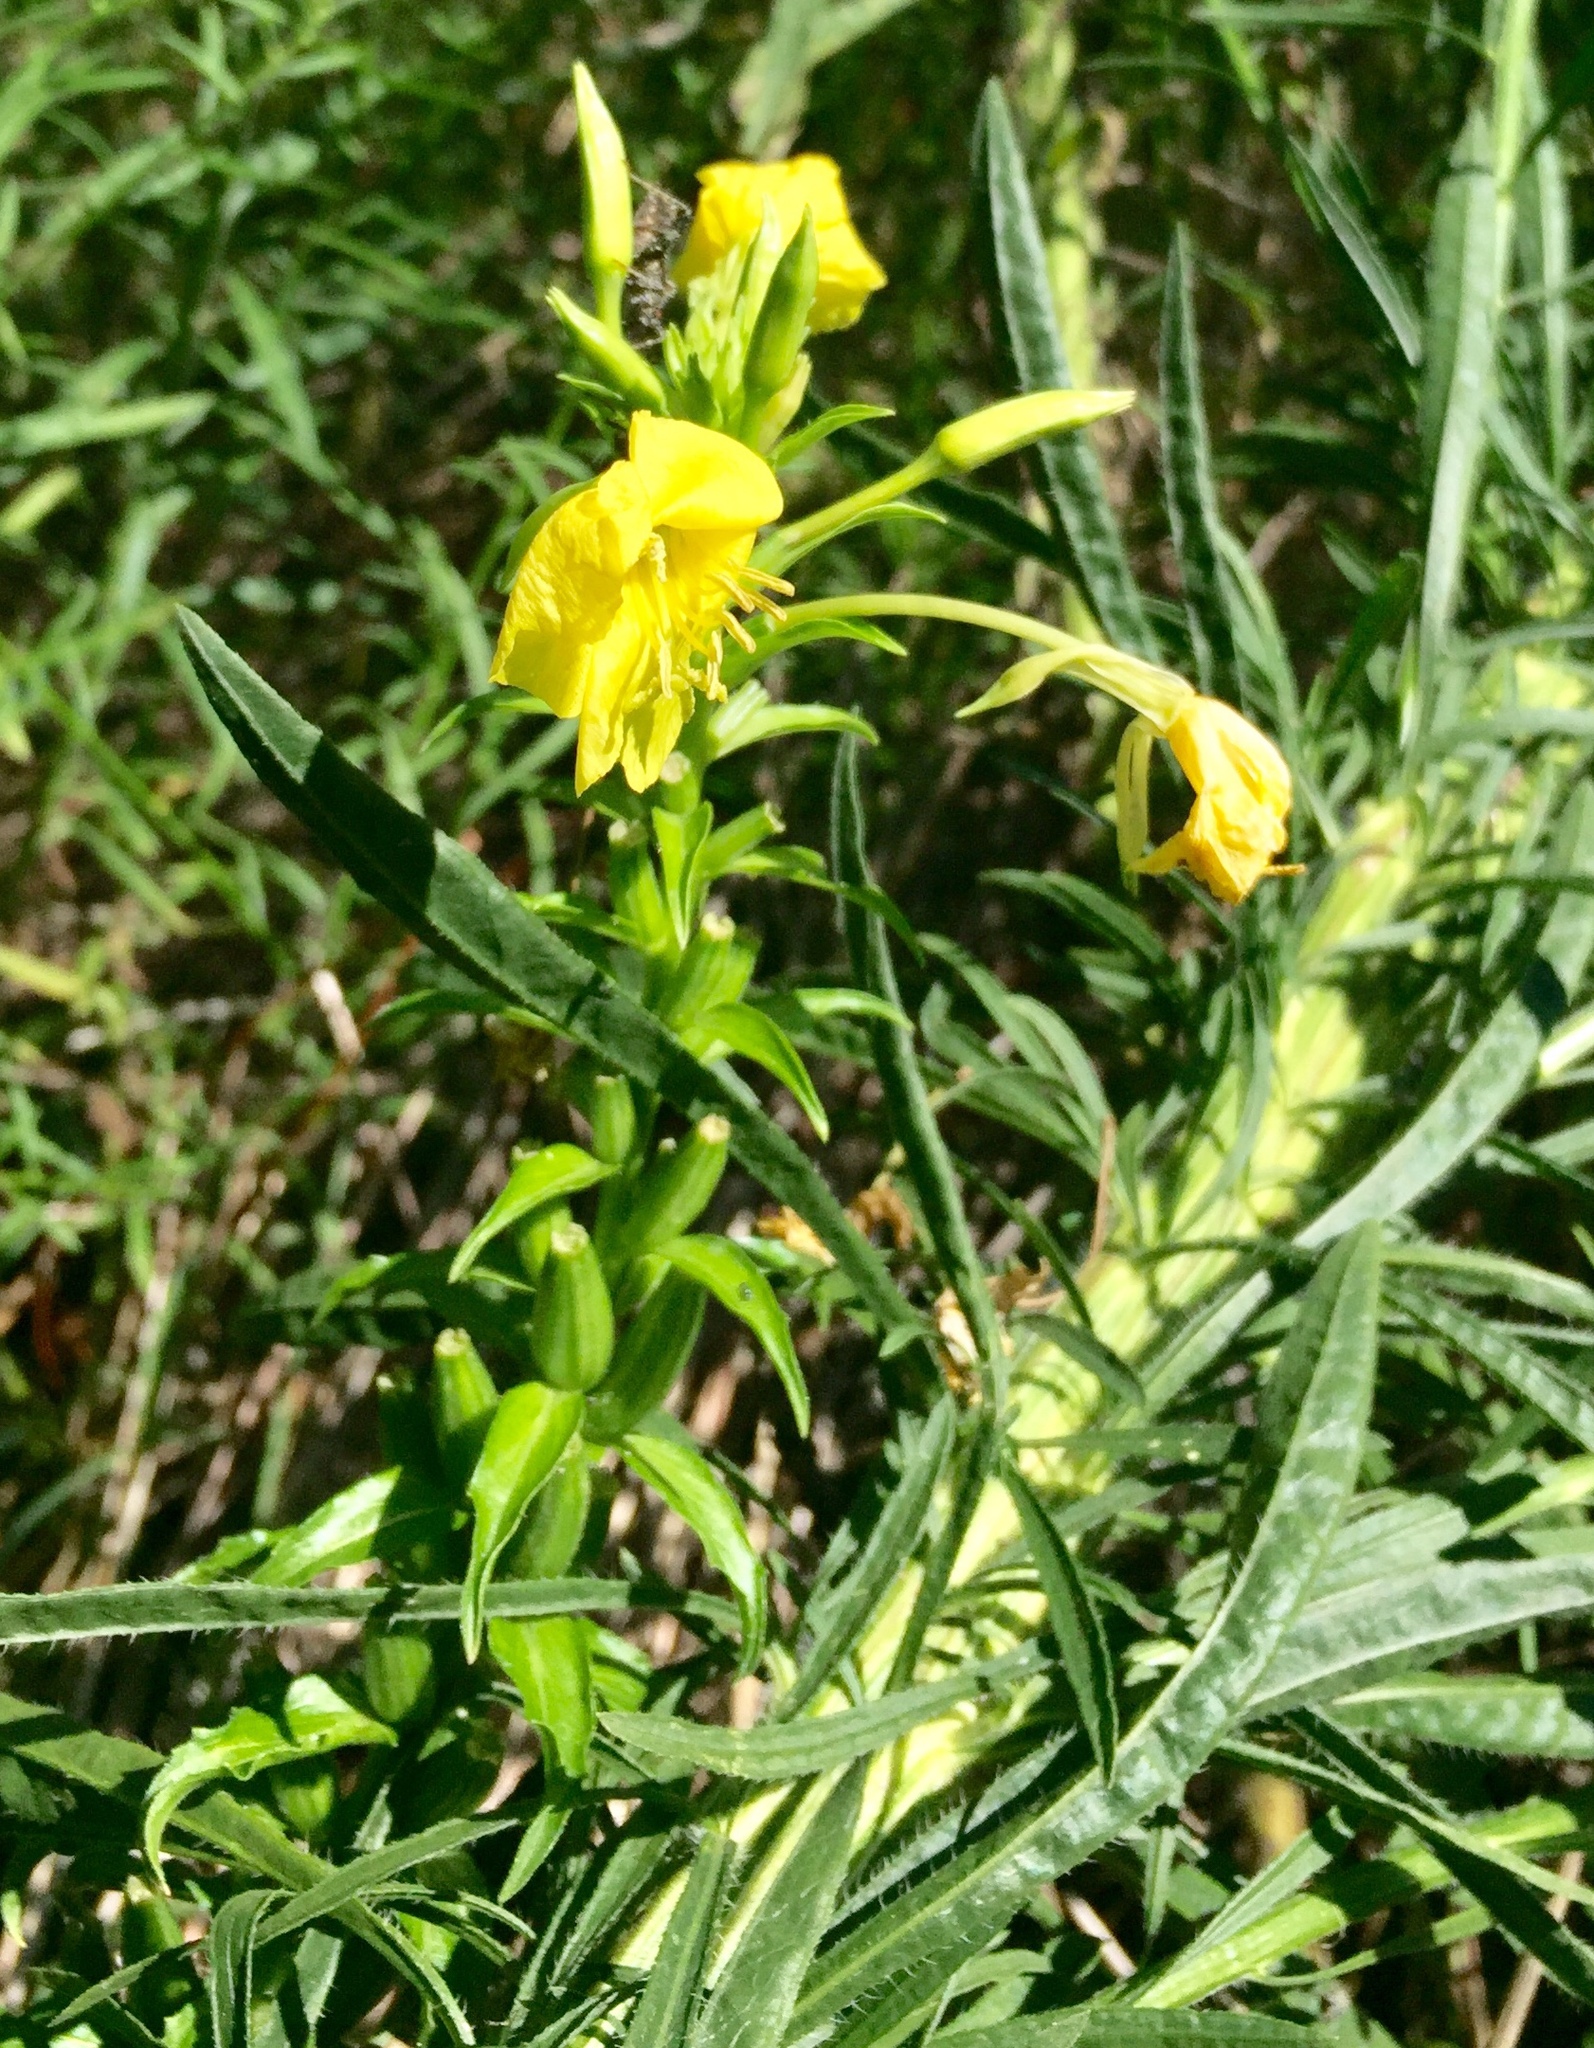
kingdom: Plantae
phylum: Tracheophyta
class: Magnoliopsida
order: Myrtales
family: Onagraceae
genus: Oenothera
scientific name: Oenothera biennis
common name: Common evening-primrose
